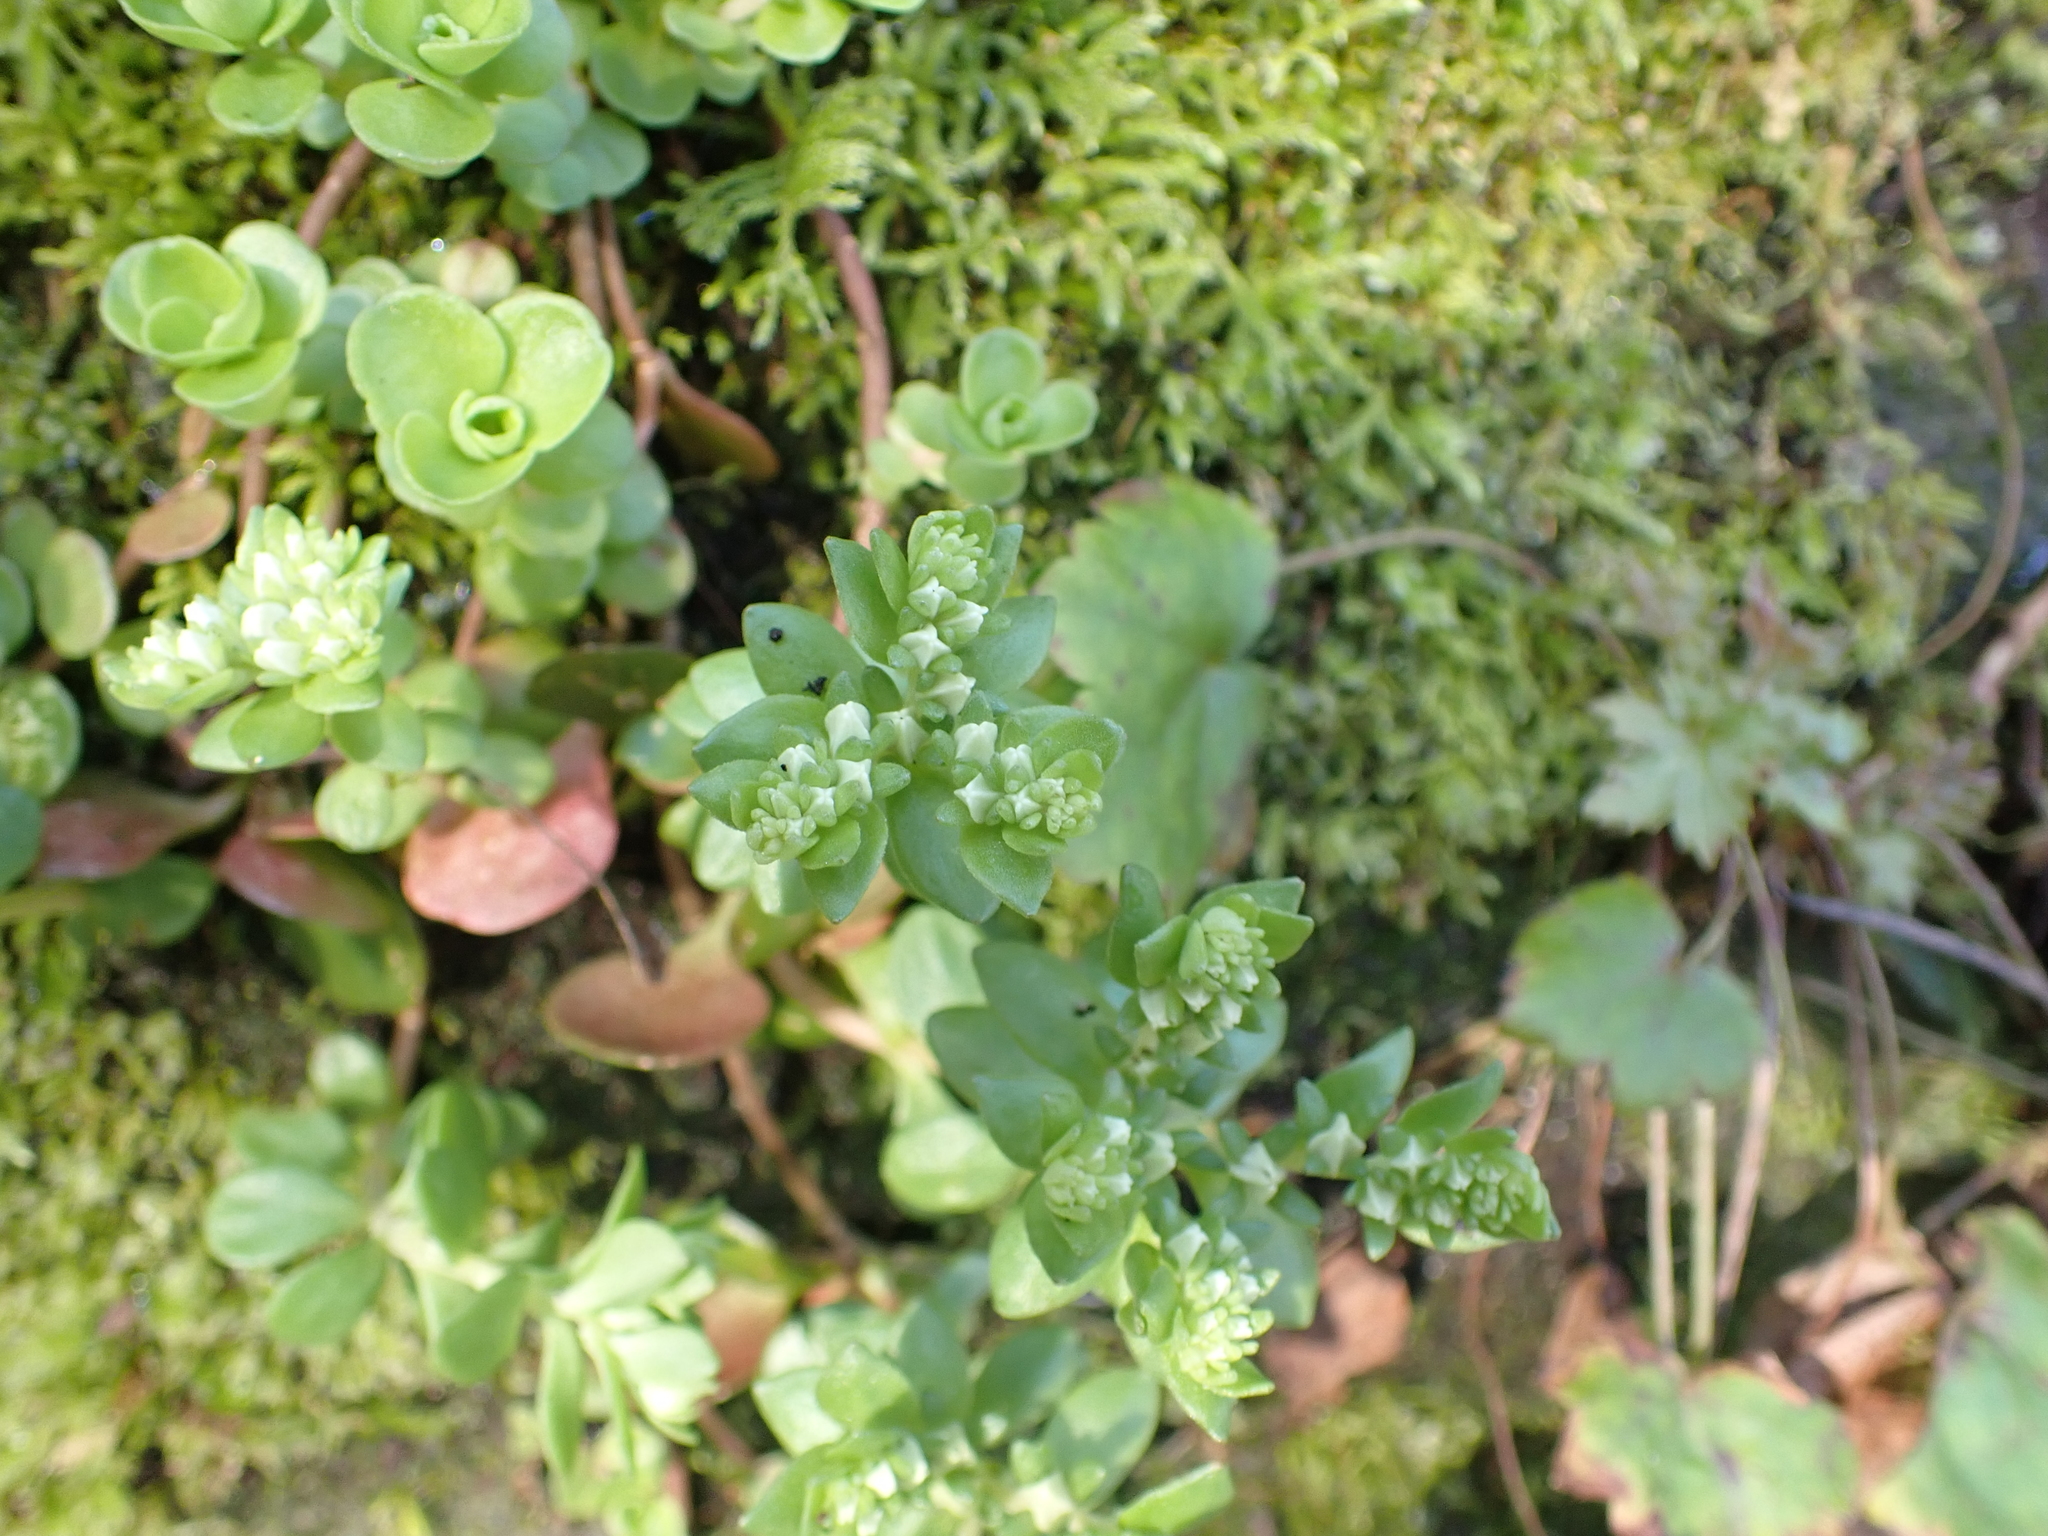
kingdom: Plantae
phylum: Tracheophyta
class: Magnoliopsida
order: Saxifragales
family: Crassulaceae
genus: Sedum
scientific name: Sedum ternatum
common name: Wild stonecrop
